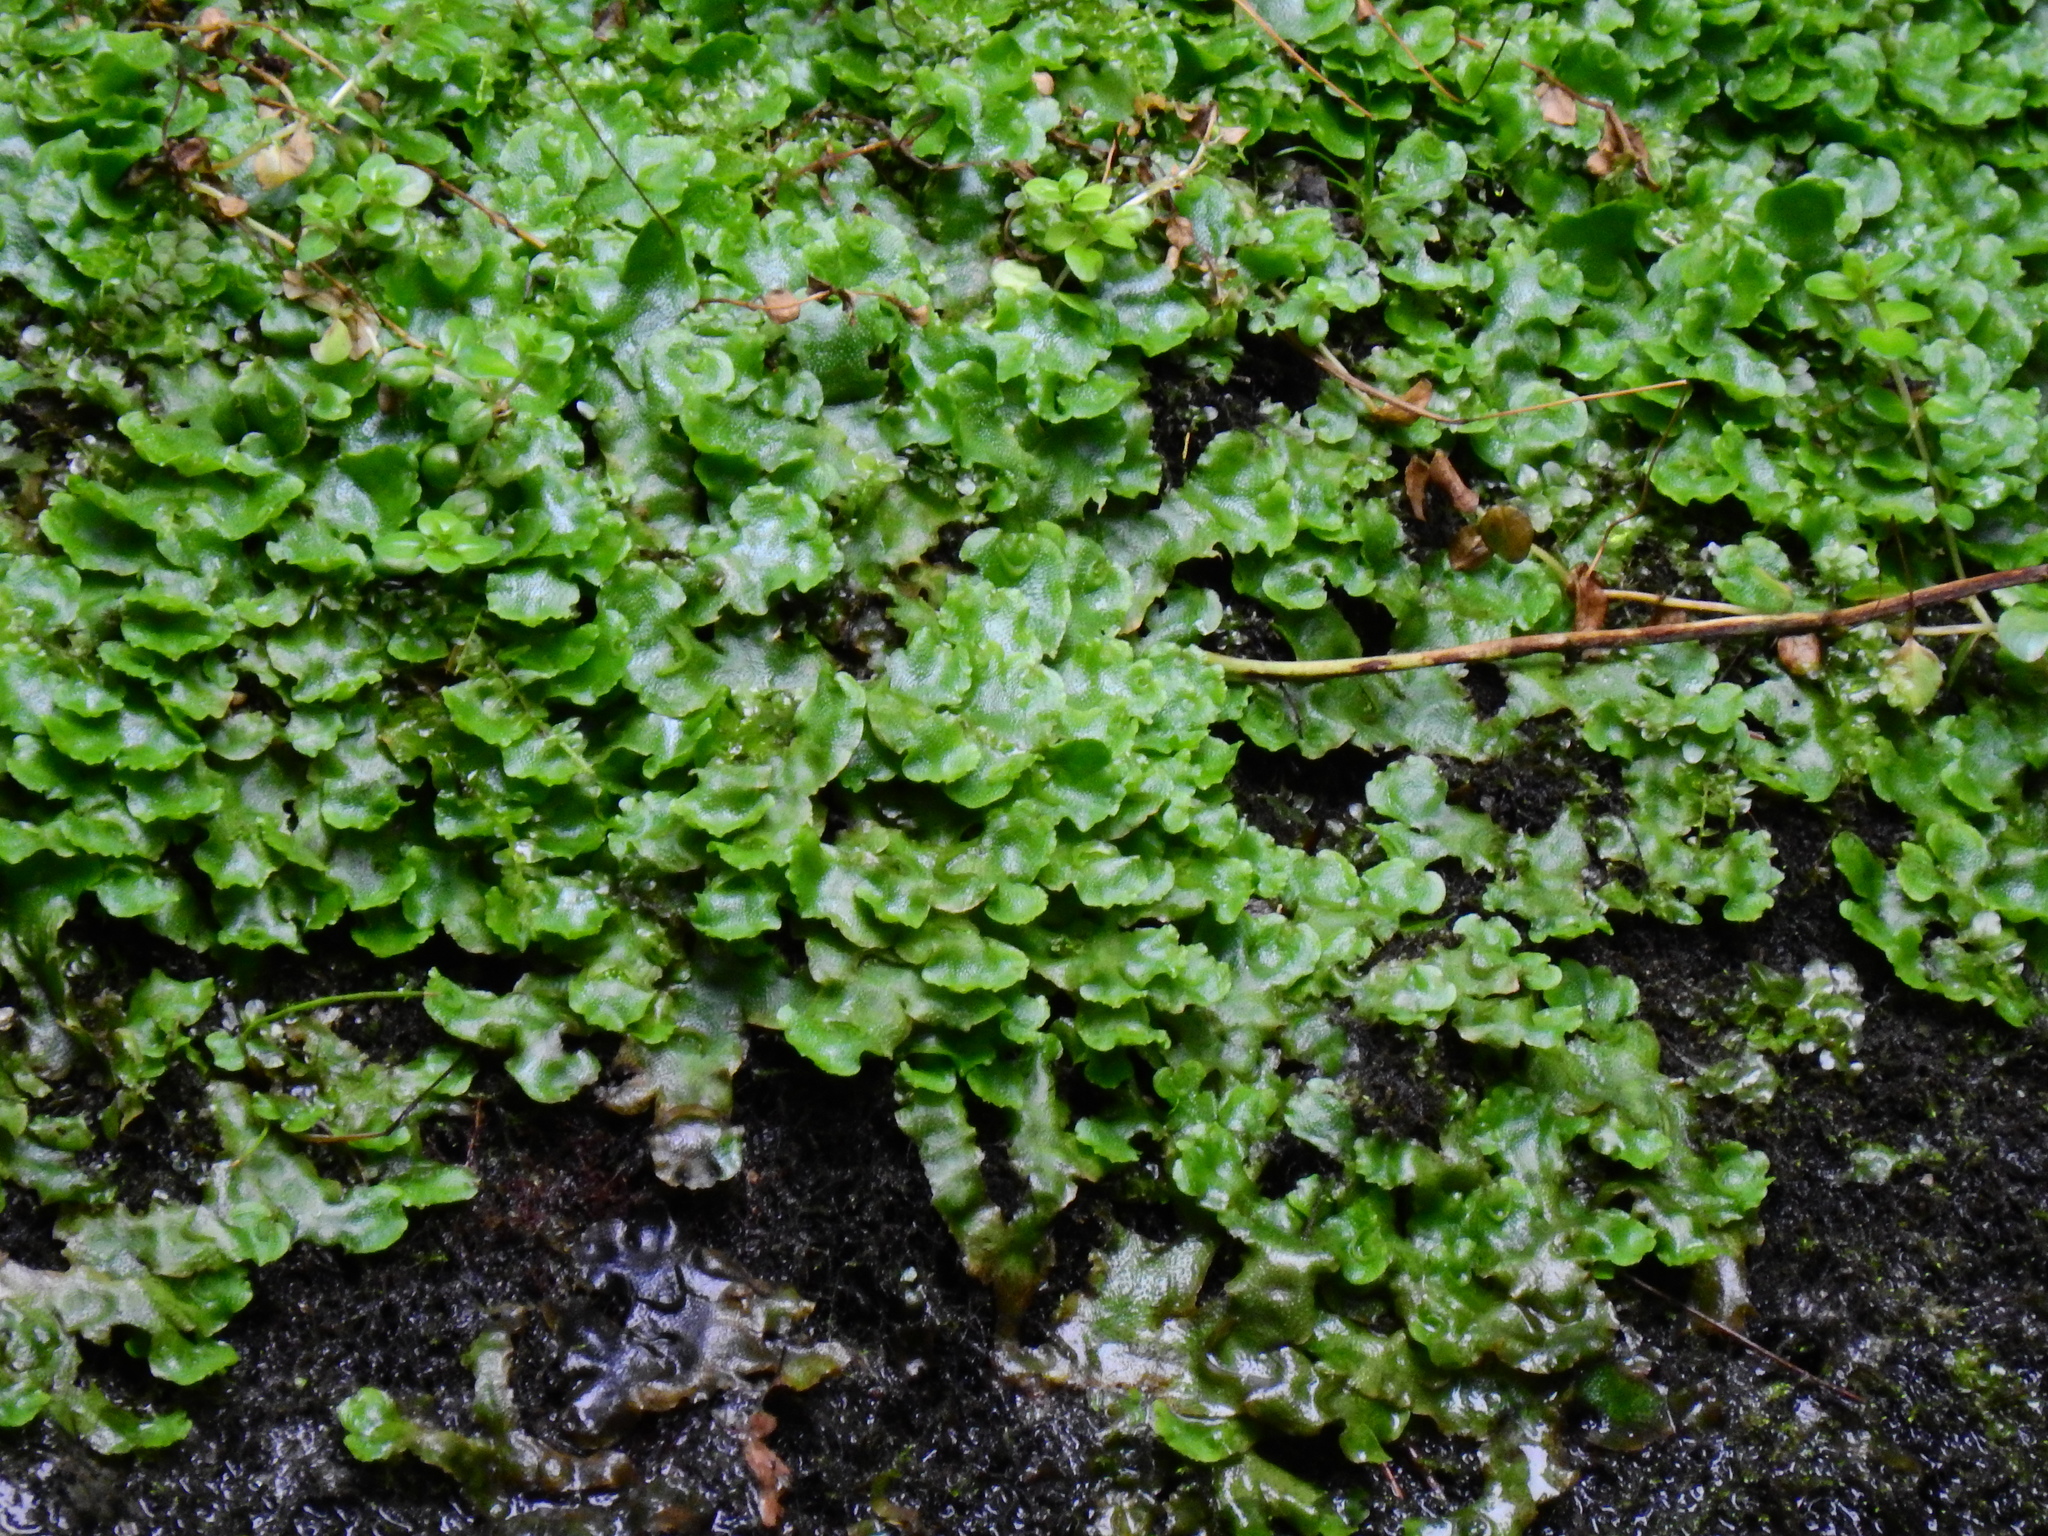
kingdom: Plantae
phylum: Marchantiophyta
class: Marchantiopsida
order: Lunulariales
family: Lunulariaceae
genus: Lunularia
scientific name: Lunularia cruciata
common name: Crescent-cup liverwort
